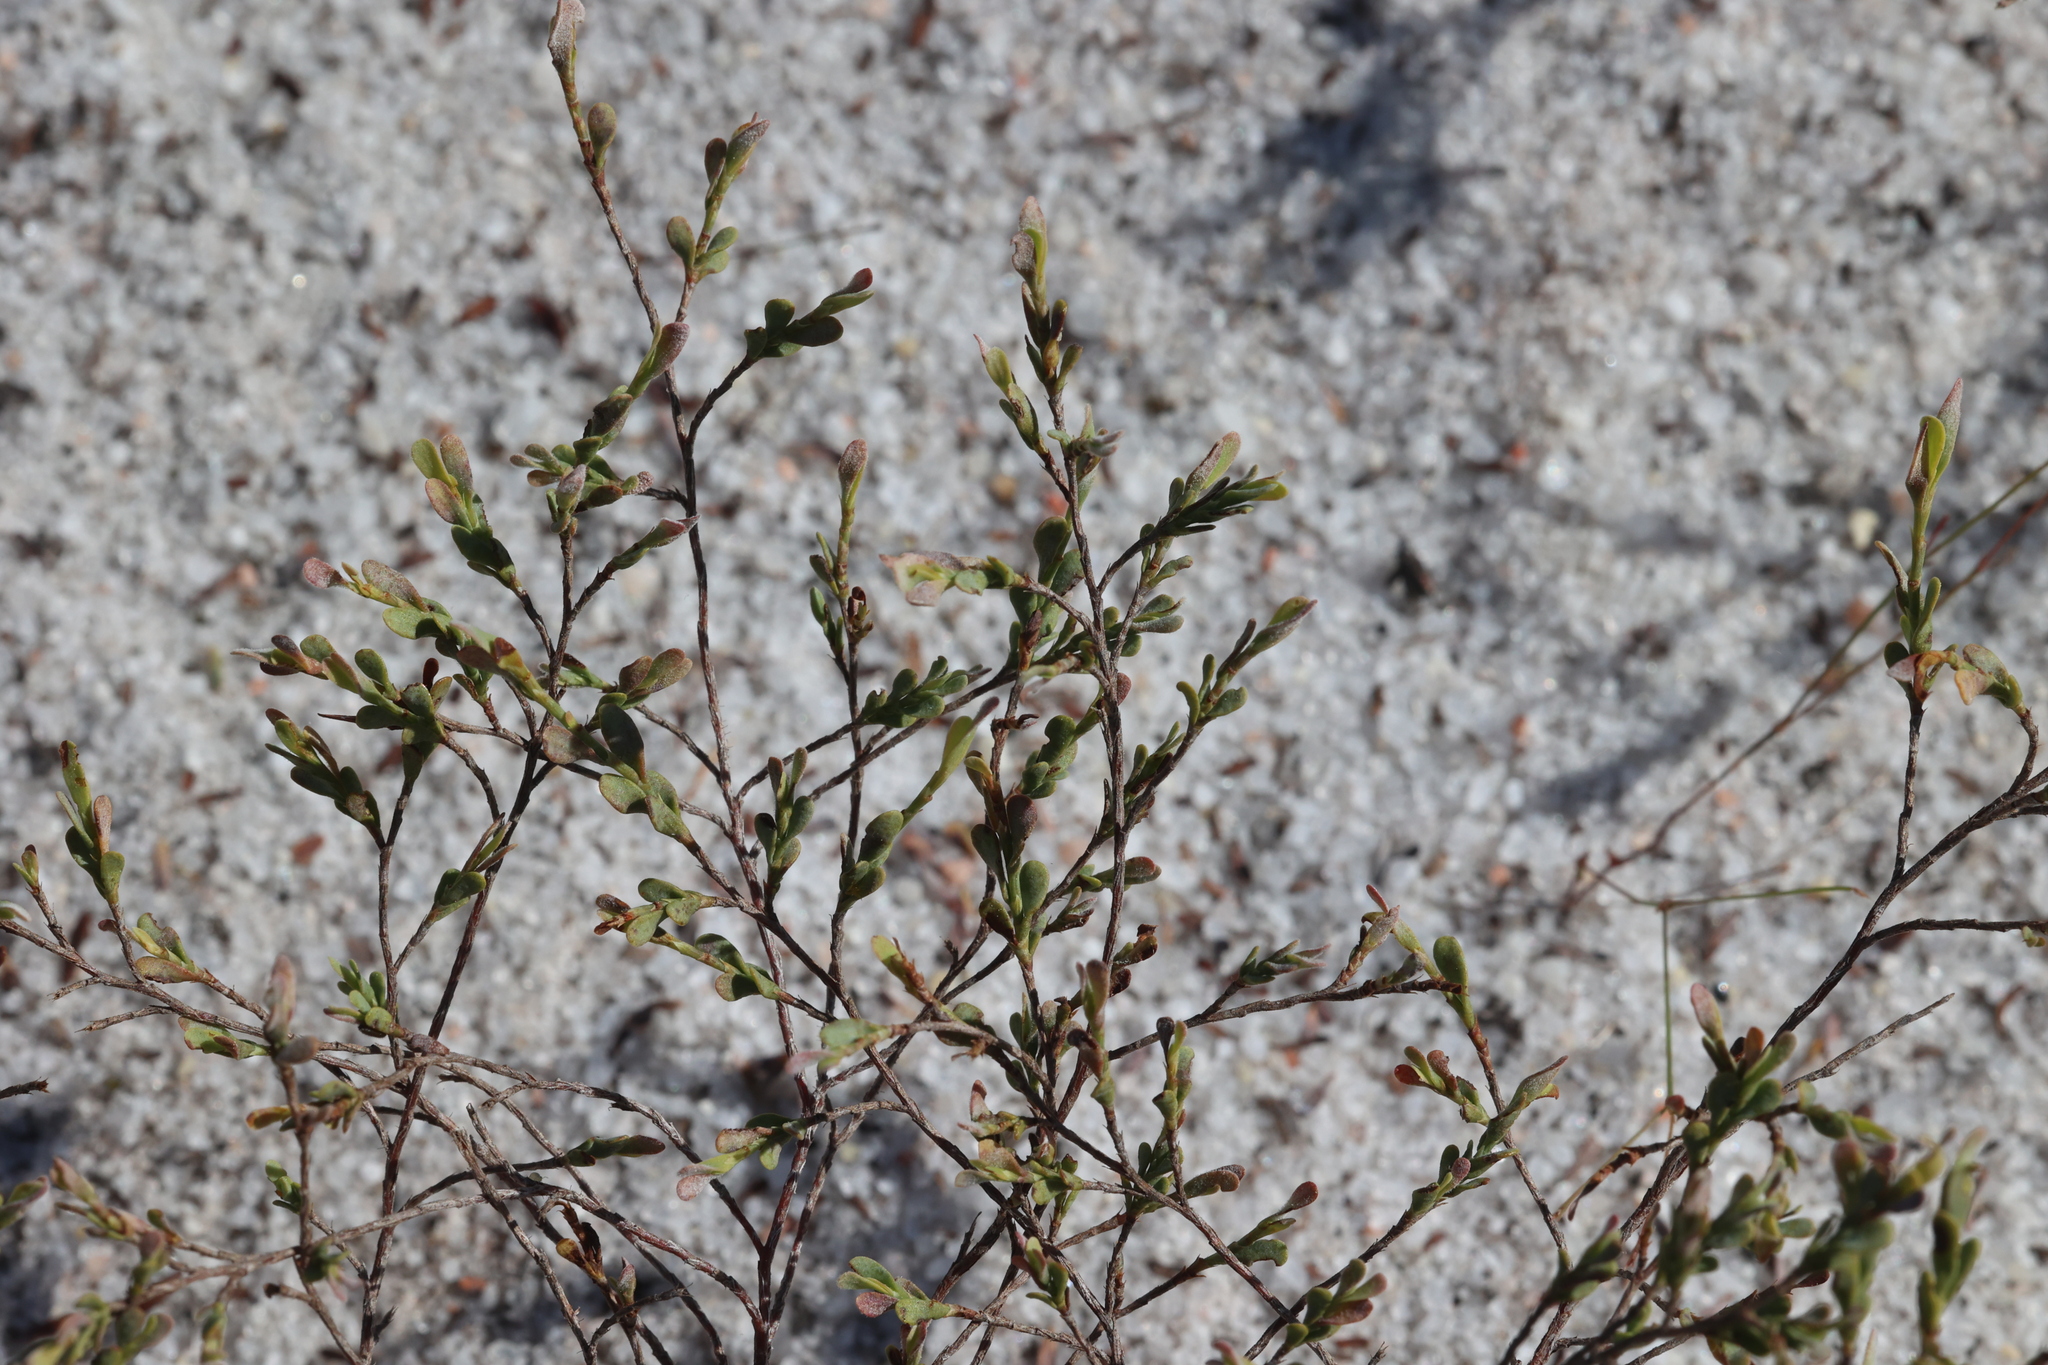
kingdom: Plantae
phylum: Tracheophyta
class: Magnoliopsida
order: Caryophyllales
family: Polygonaceae
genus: Polygonella
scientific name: Polygonella polygama
